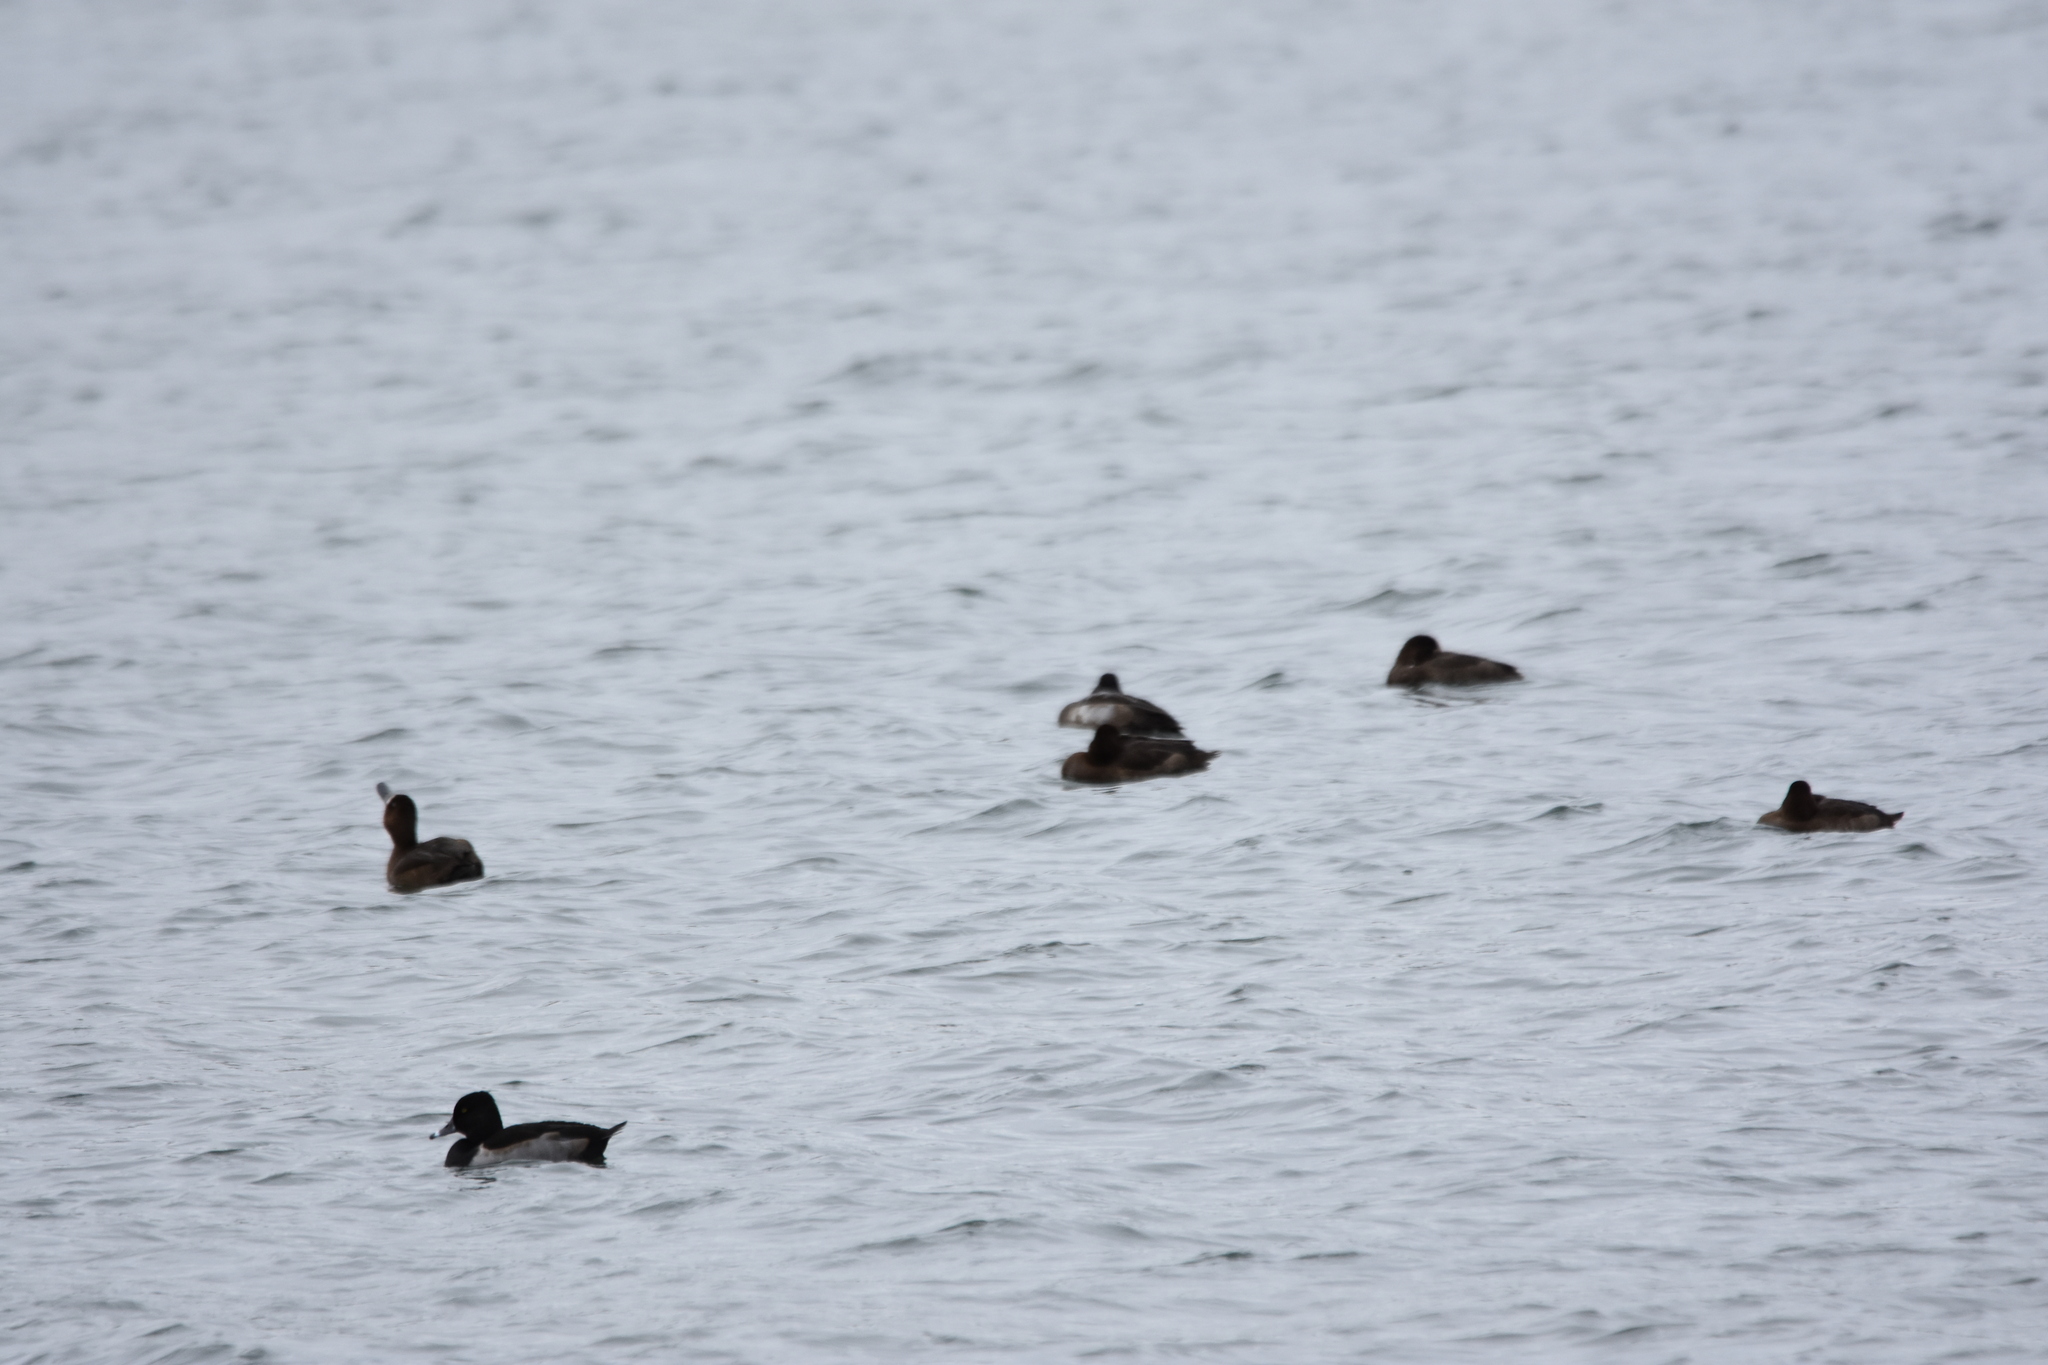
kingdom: Animalia
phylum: Chordata
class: Aves
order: Anseriformes
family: Anatidae
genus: Aythya
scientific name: Aythya collaris
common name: Ring-necked duck
